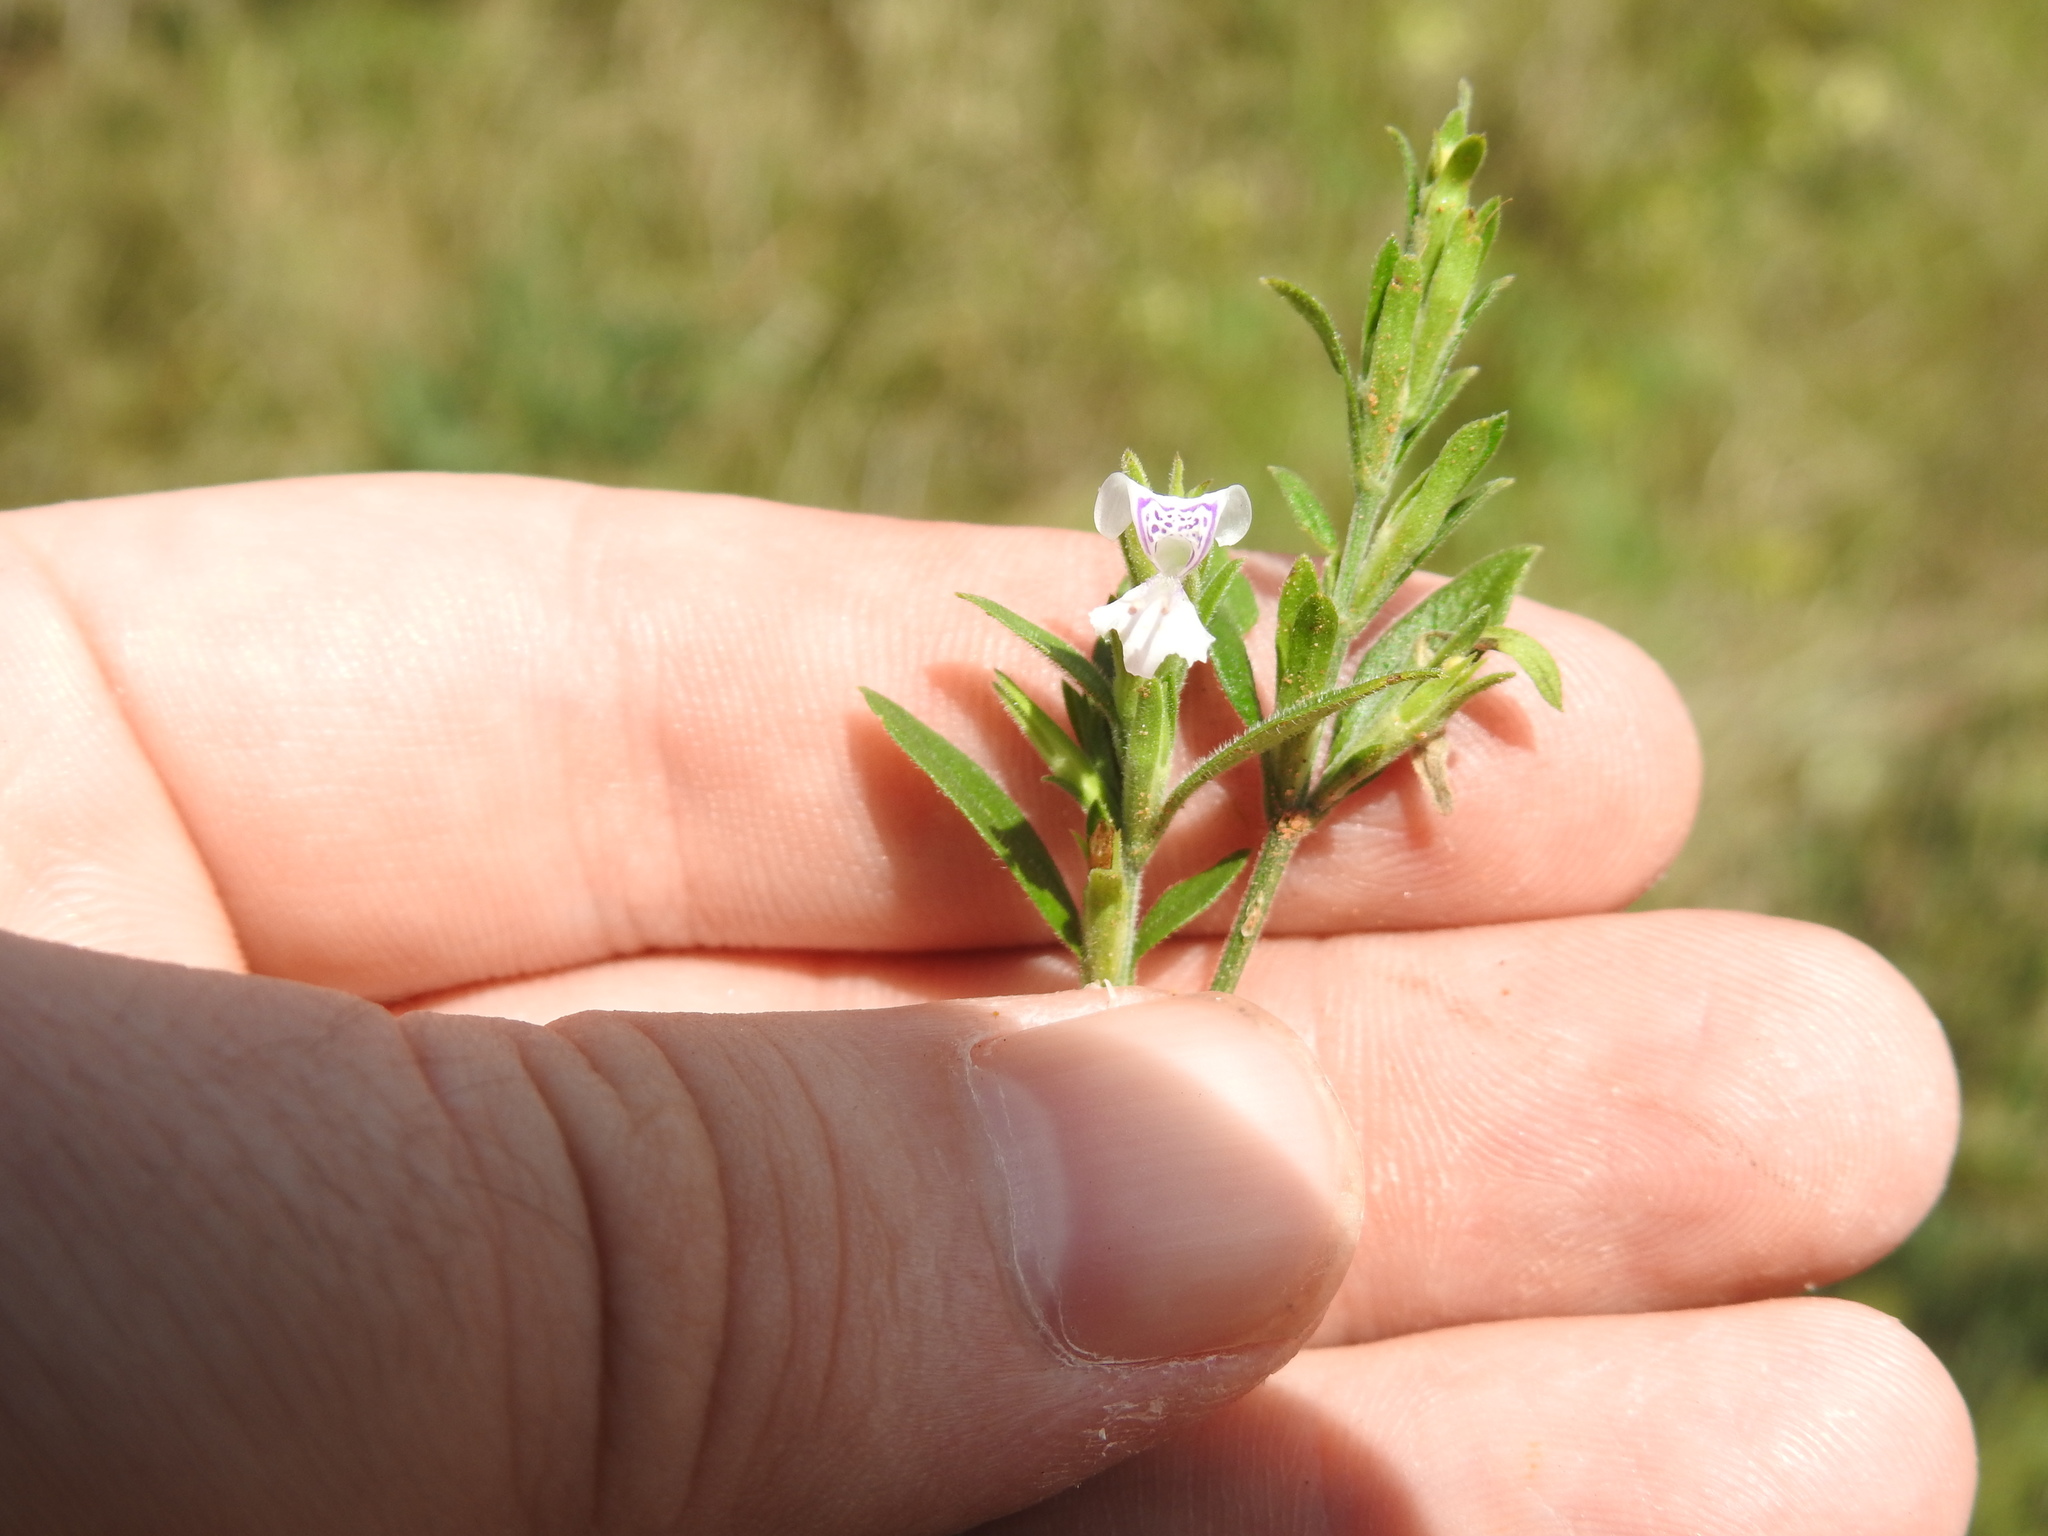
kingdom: Plantae
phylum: Tracheophyta
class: Magnoliopsida
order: Lamiales
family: Acanthaceae
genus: Hypoestes
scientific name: Hypoestes forskaolii
